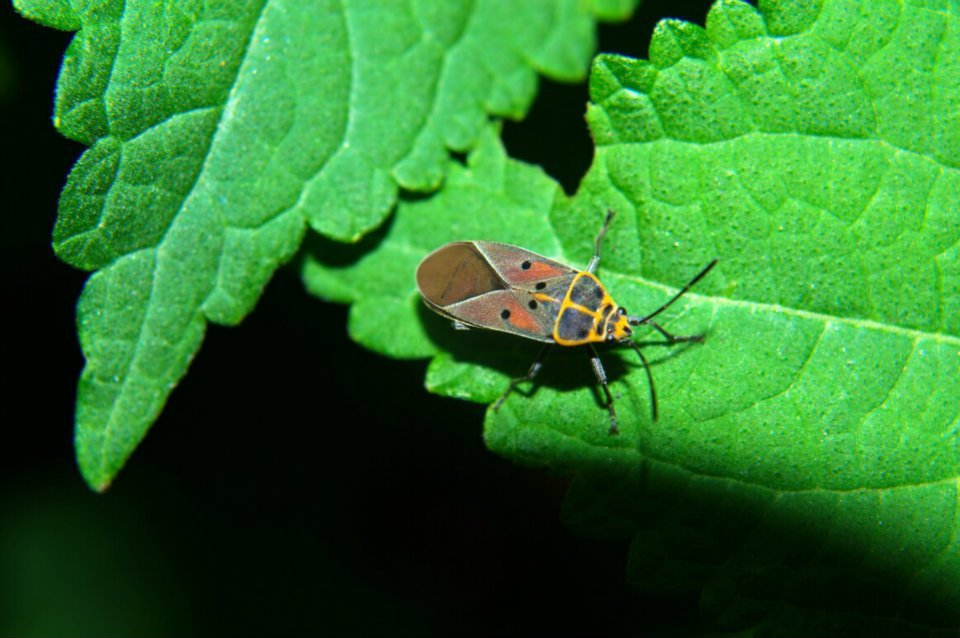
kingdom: Animalia
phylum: Arthropoda
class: Insecta
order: Hemiptera
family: Lygaeidae
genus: Lygaeus
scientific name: Lygaeus quadratomaculatus
